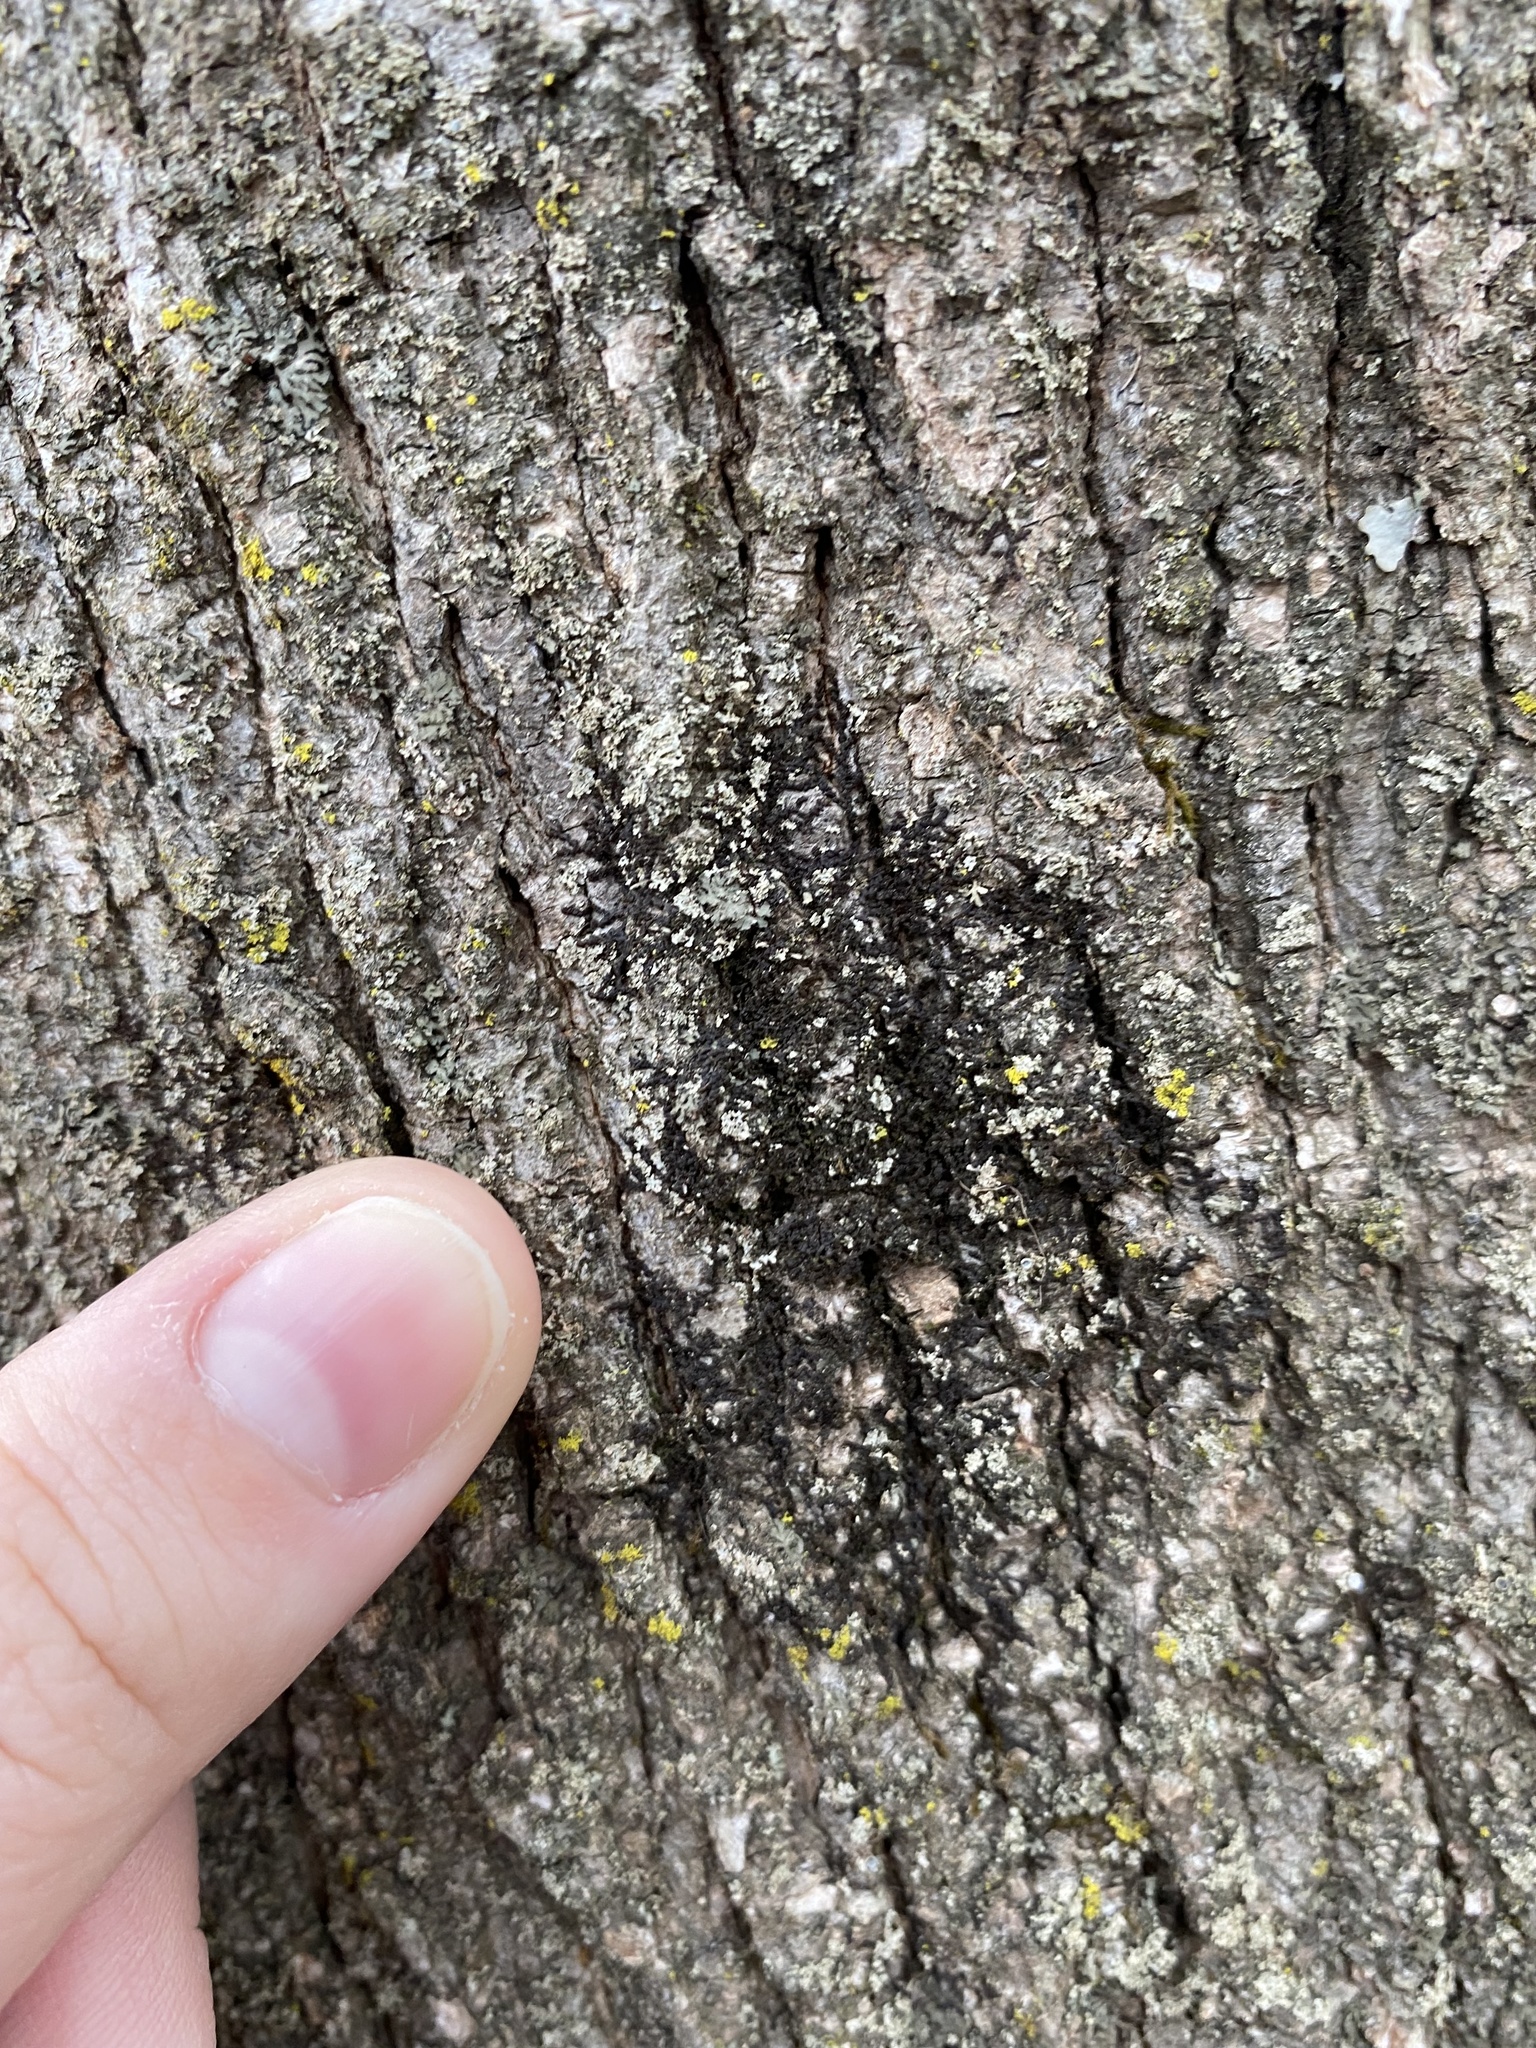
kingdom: Plantae
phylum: Marchantiophyta
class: Jungermanniopsida
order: Porellales
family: Frullaniaceae
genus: Frullania
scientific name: Frullania eboracensis
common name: New york scalewort
